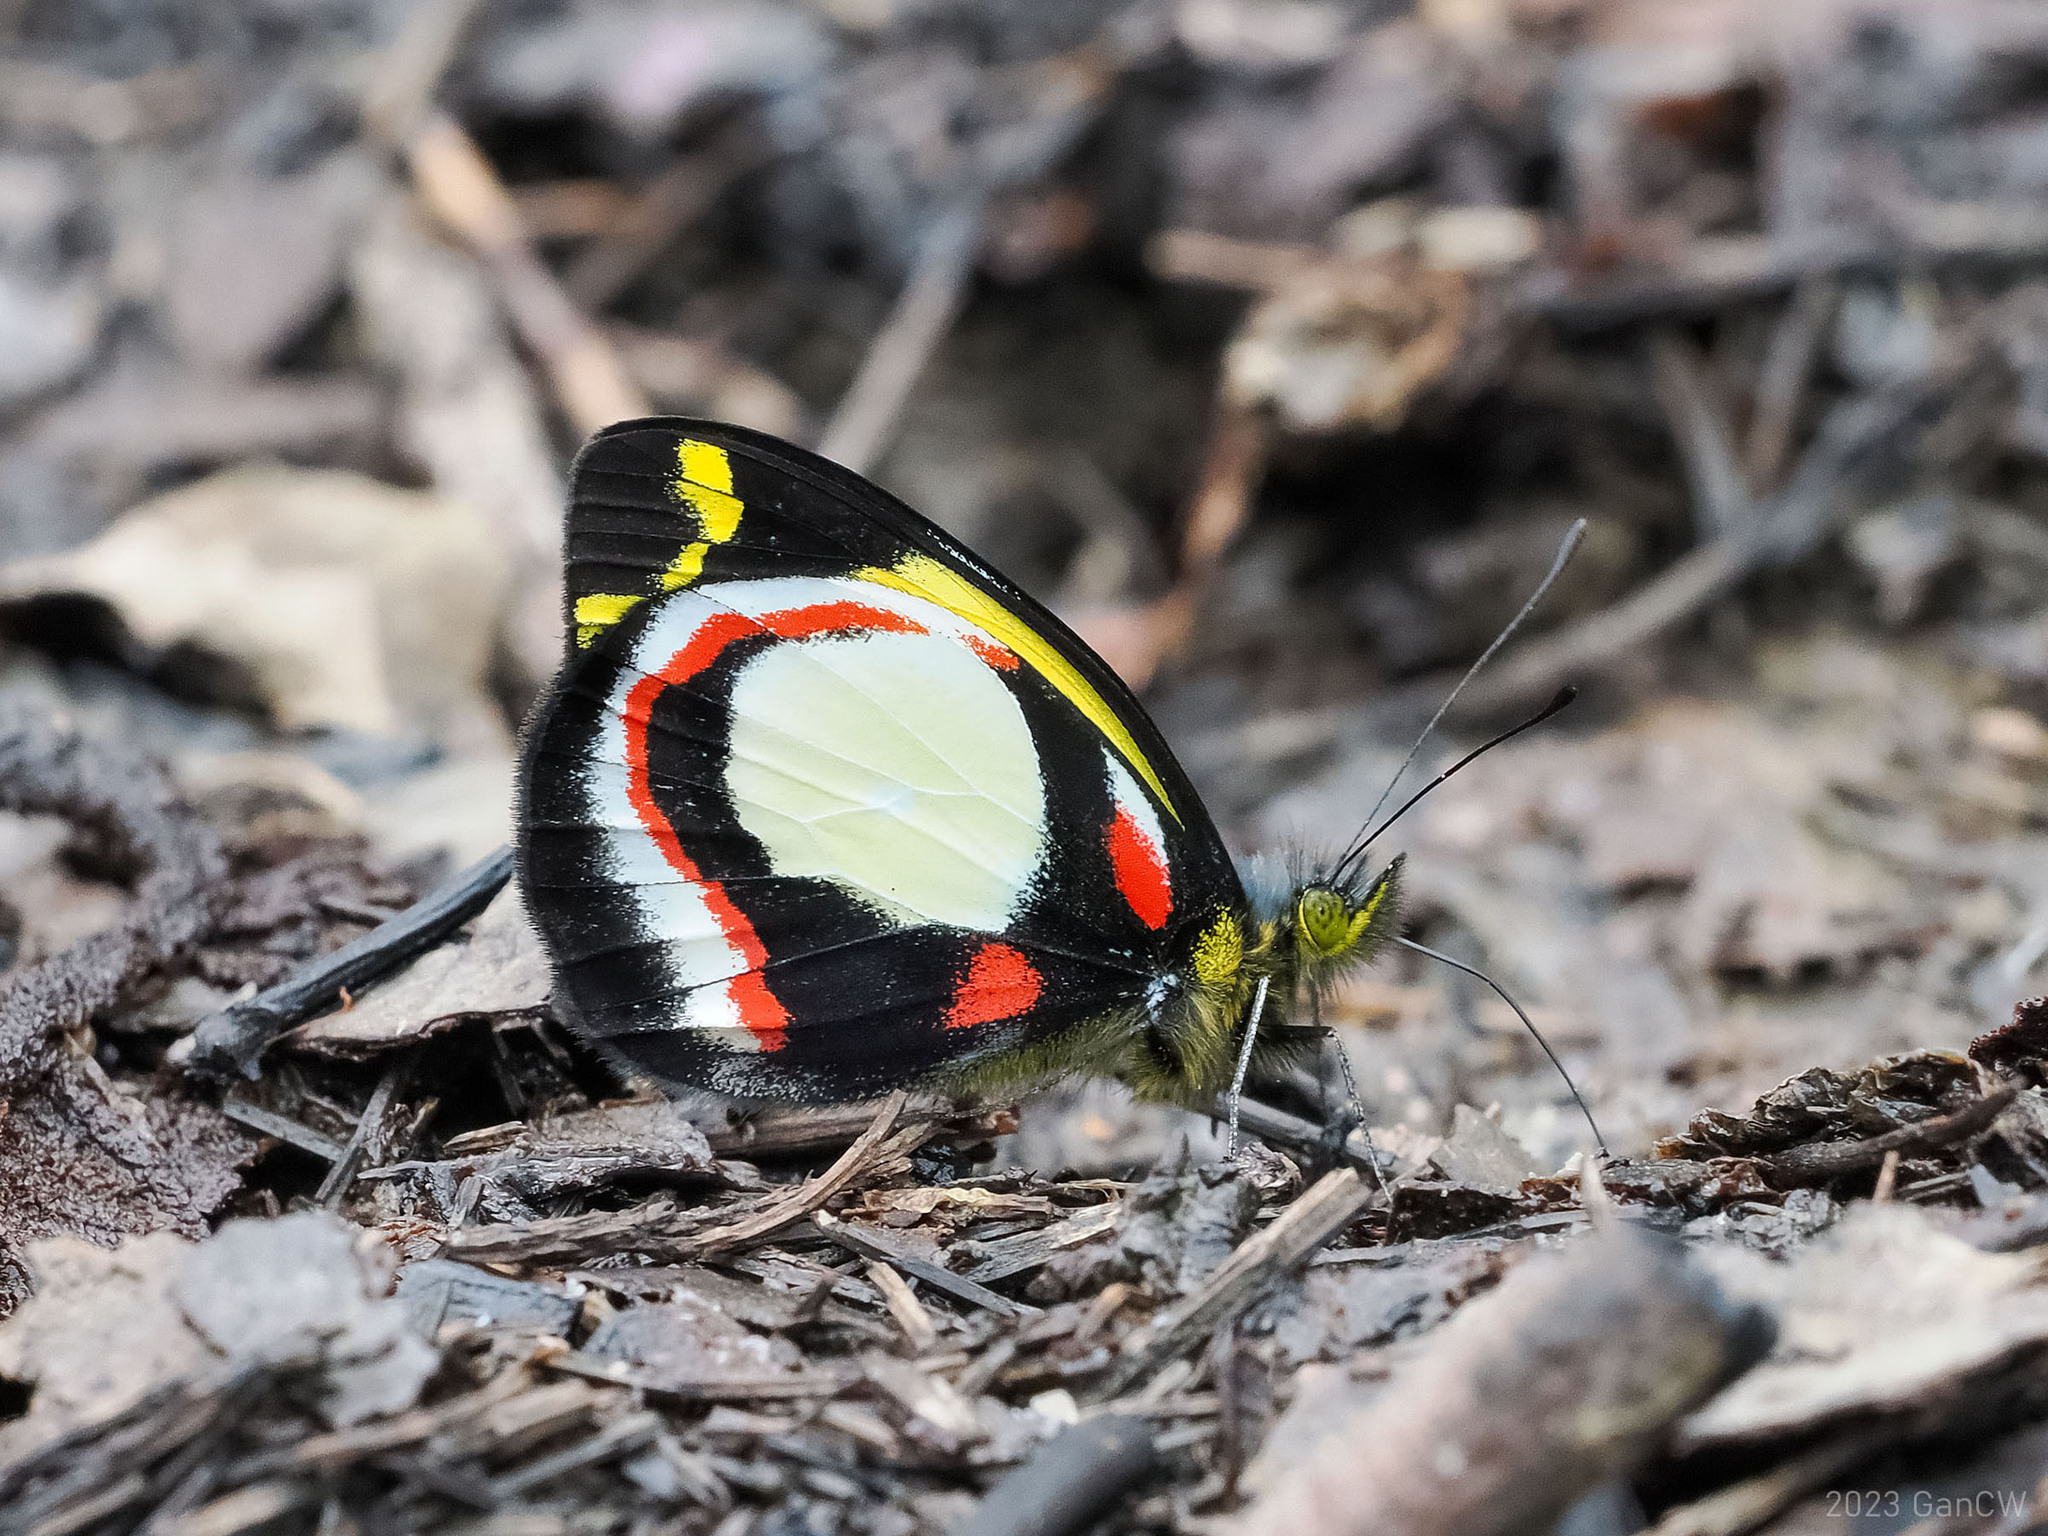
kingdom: Animalia
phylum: Arthropoda
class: Insecta
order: Lepidoptera
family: Pieridae
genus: Delias
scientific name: Delias leucias
